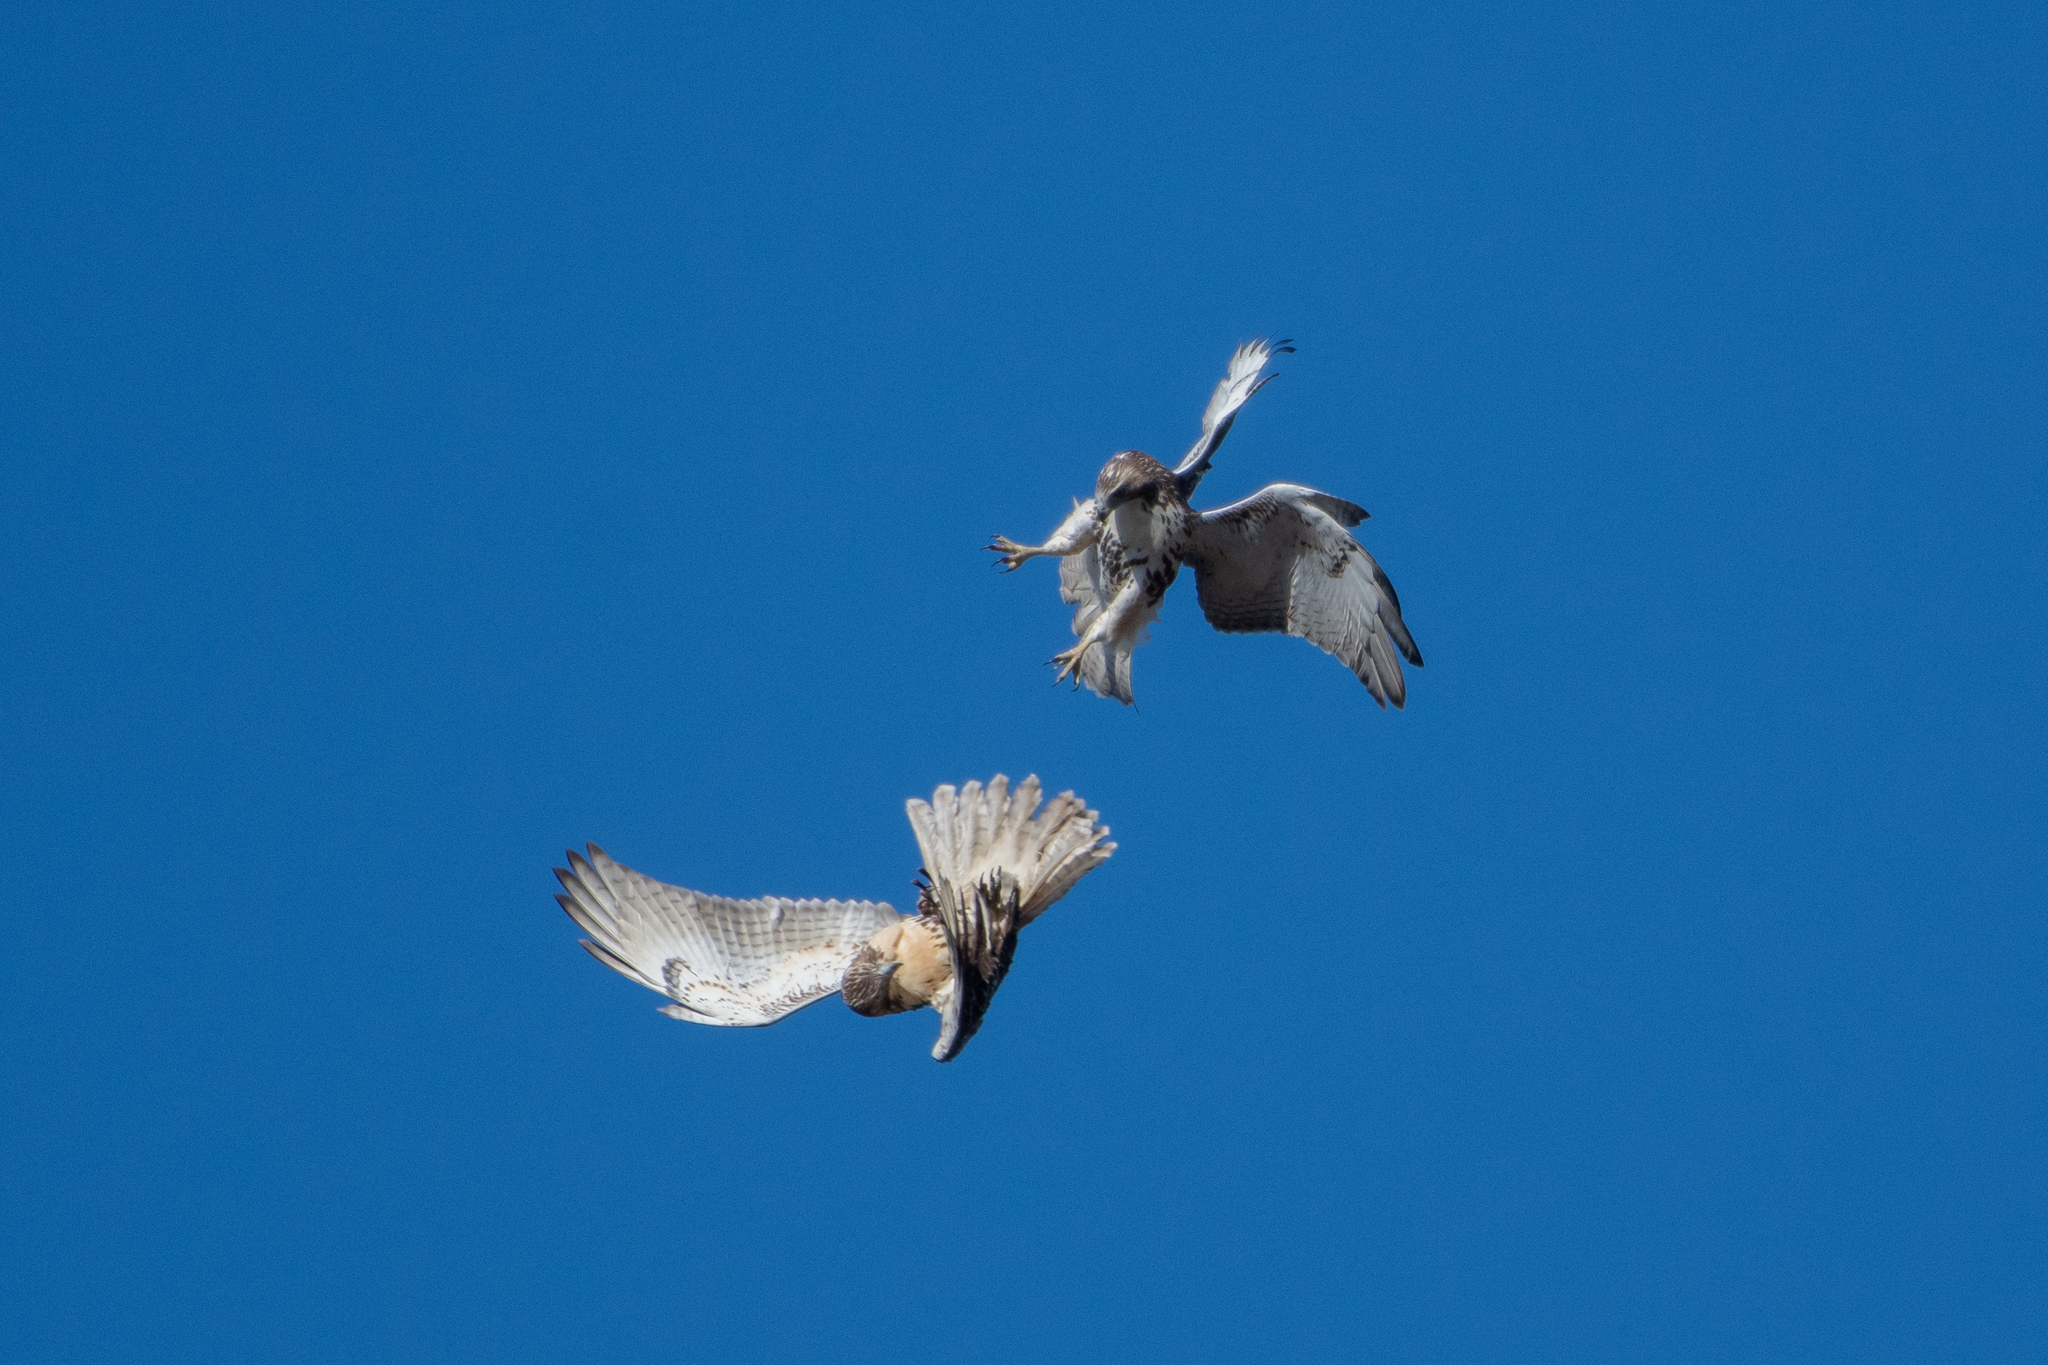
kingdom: Animalia
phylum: Chordata
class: Aves
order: Accipitriformes
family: Accipitridae
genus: Buteo
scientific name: Buteo jamaicensis
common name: Red-tailed hawk
